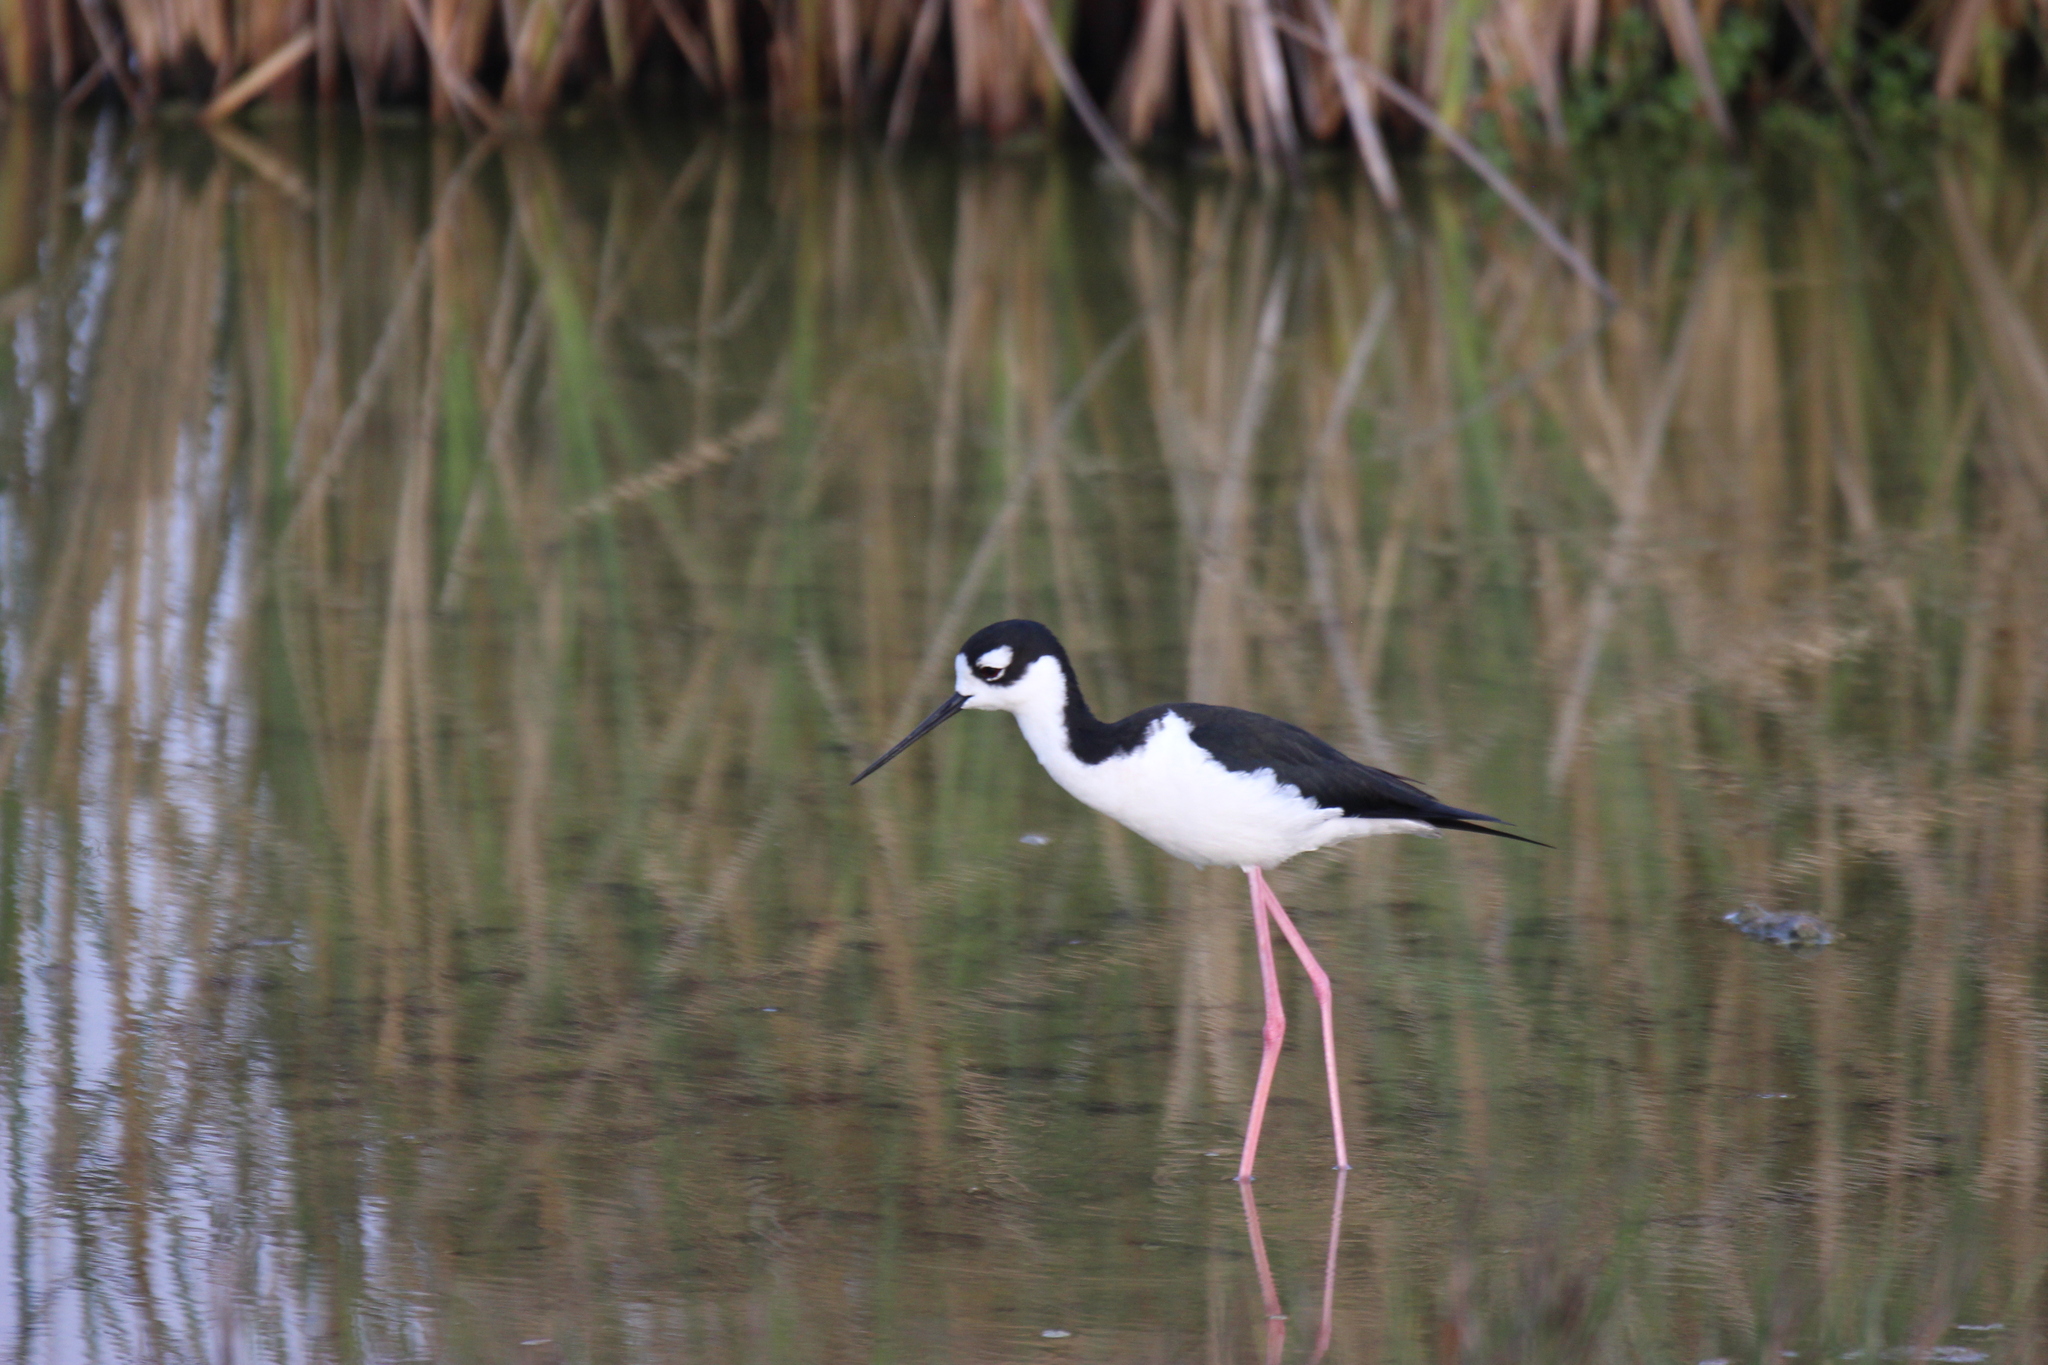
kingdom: Animalia
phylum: Chordata
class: Aves
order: Charadriiformes
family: Recurvirostridae
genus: Himantopus
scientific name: Himantopus mexicanus
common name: Black-necked stilt
